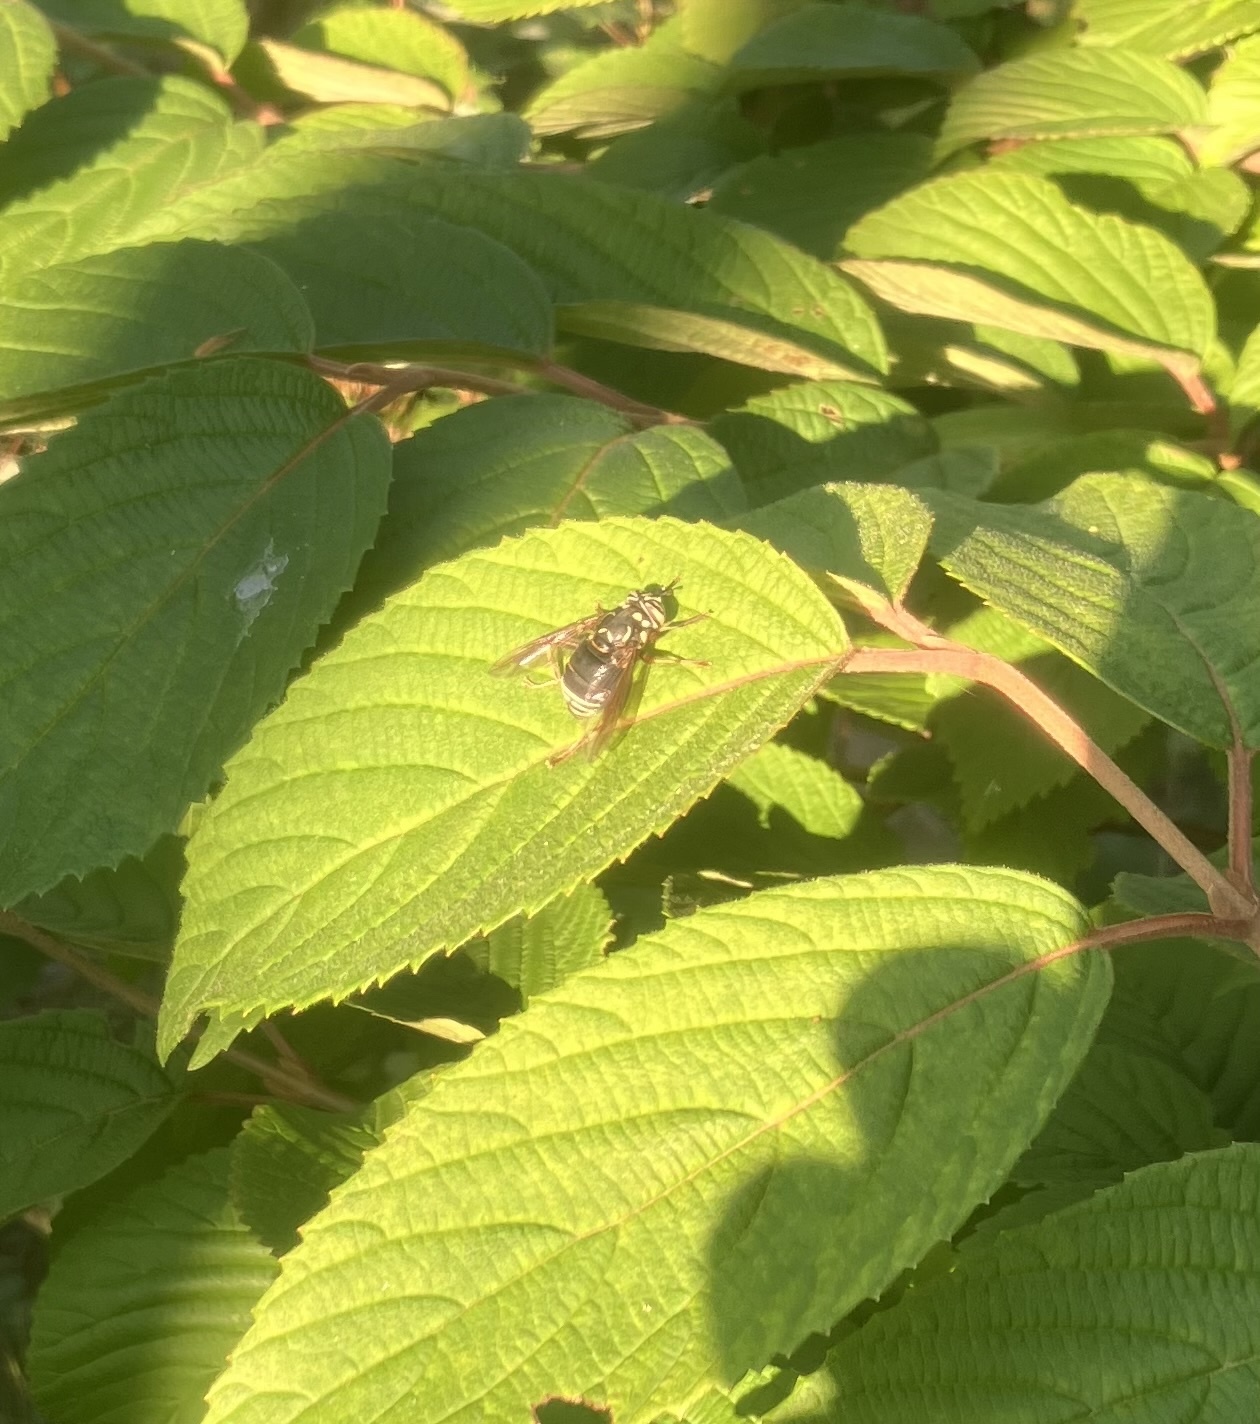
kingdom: Animalia
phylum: Arthropoda
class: Insecta
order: Diptera
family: Syrphidae
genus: Spilomyia
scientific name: Spilomyia fusca
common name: Bald-faced hornet fly
